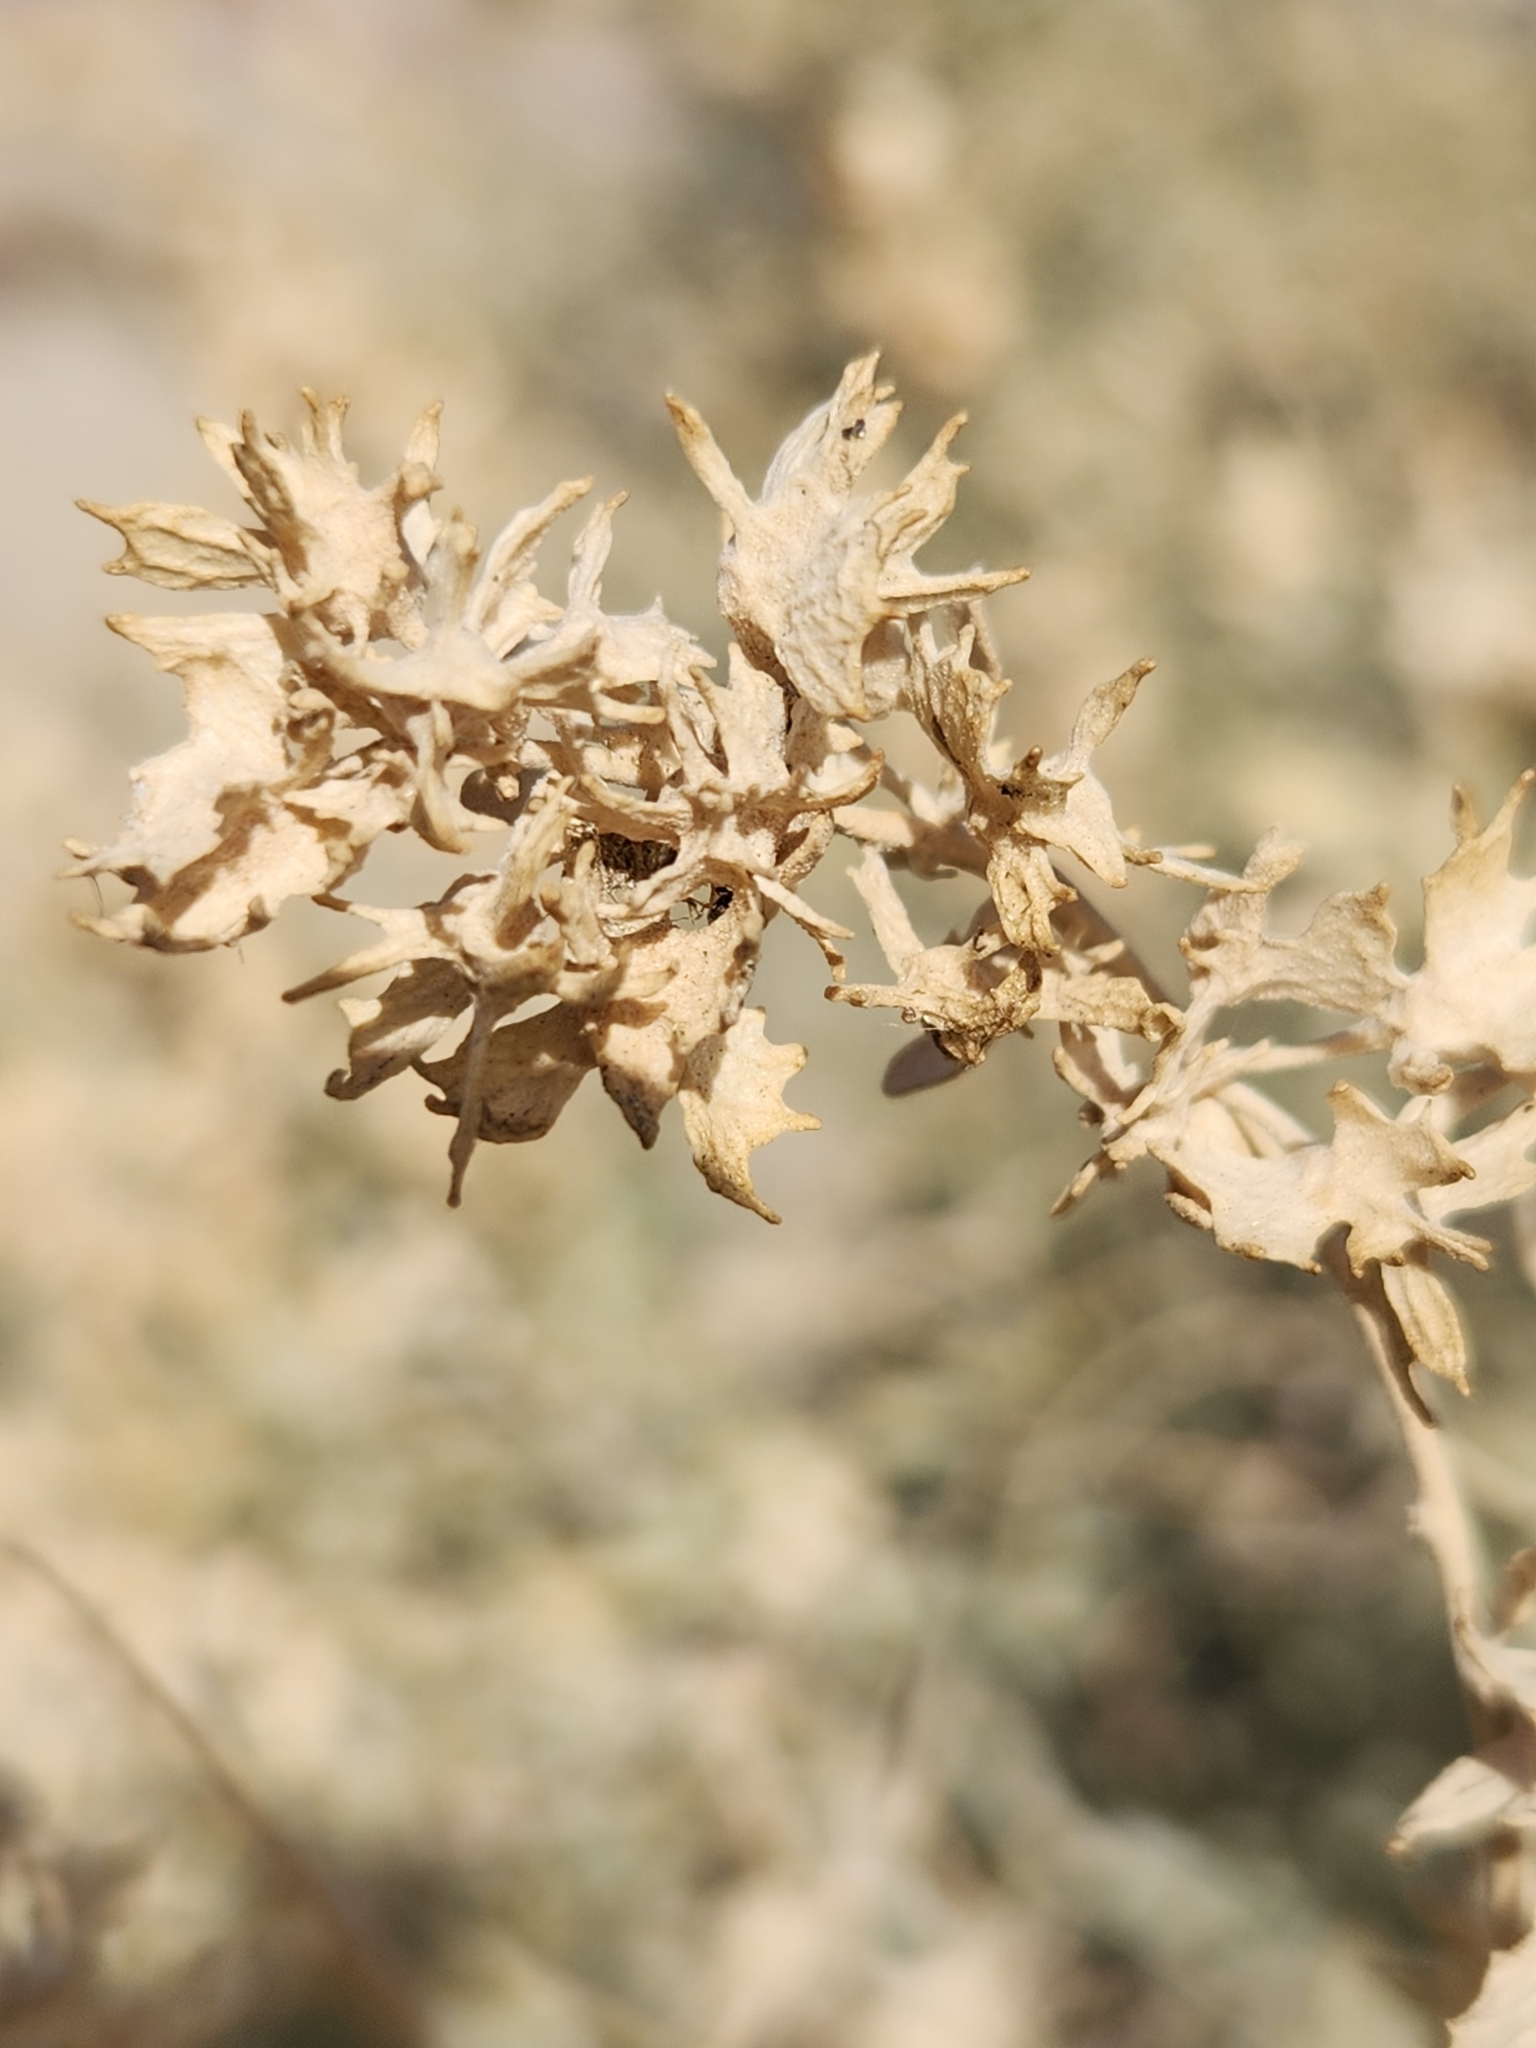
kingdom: Plantae
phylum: Tracheophyta
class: Magnoliopsida
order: Caryophyllales
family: Amaranthaceae
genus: Atriplex
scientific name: Atriplex canescens
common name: Four-wing saltbush
